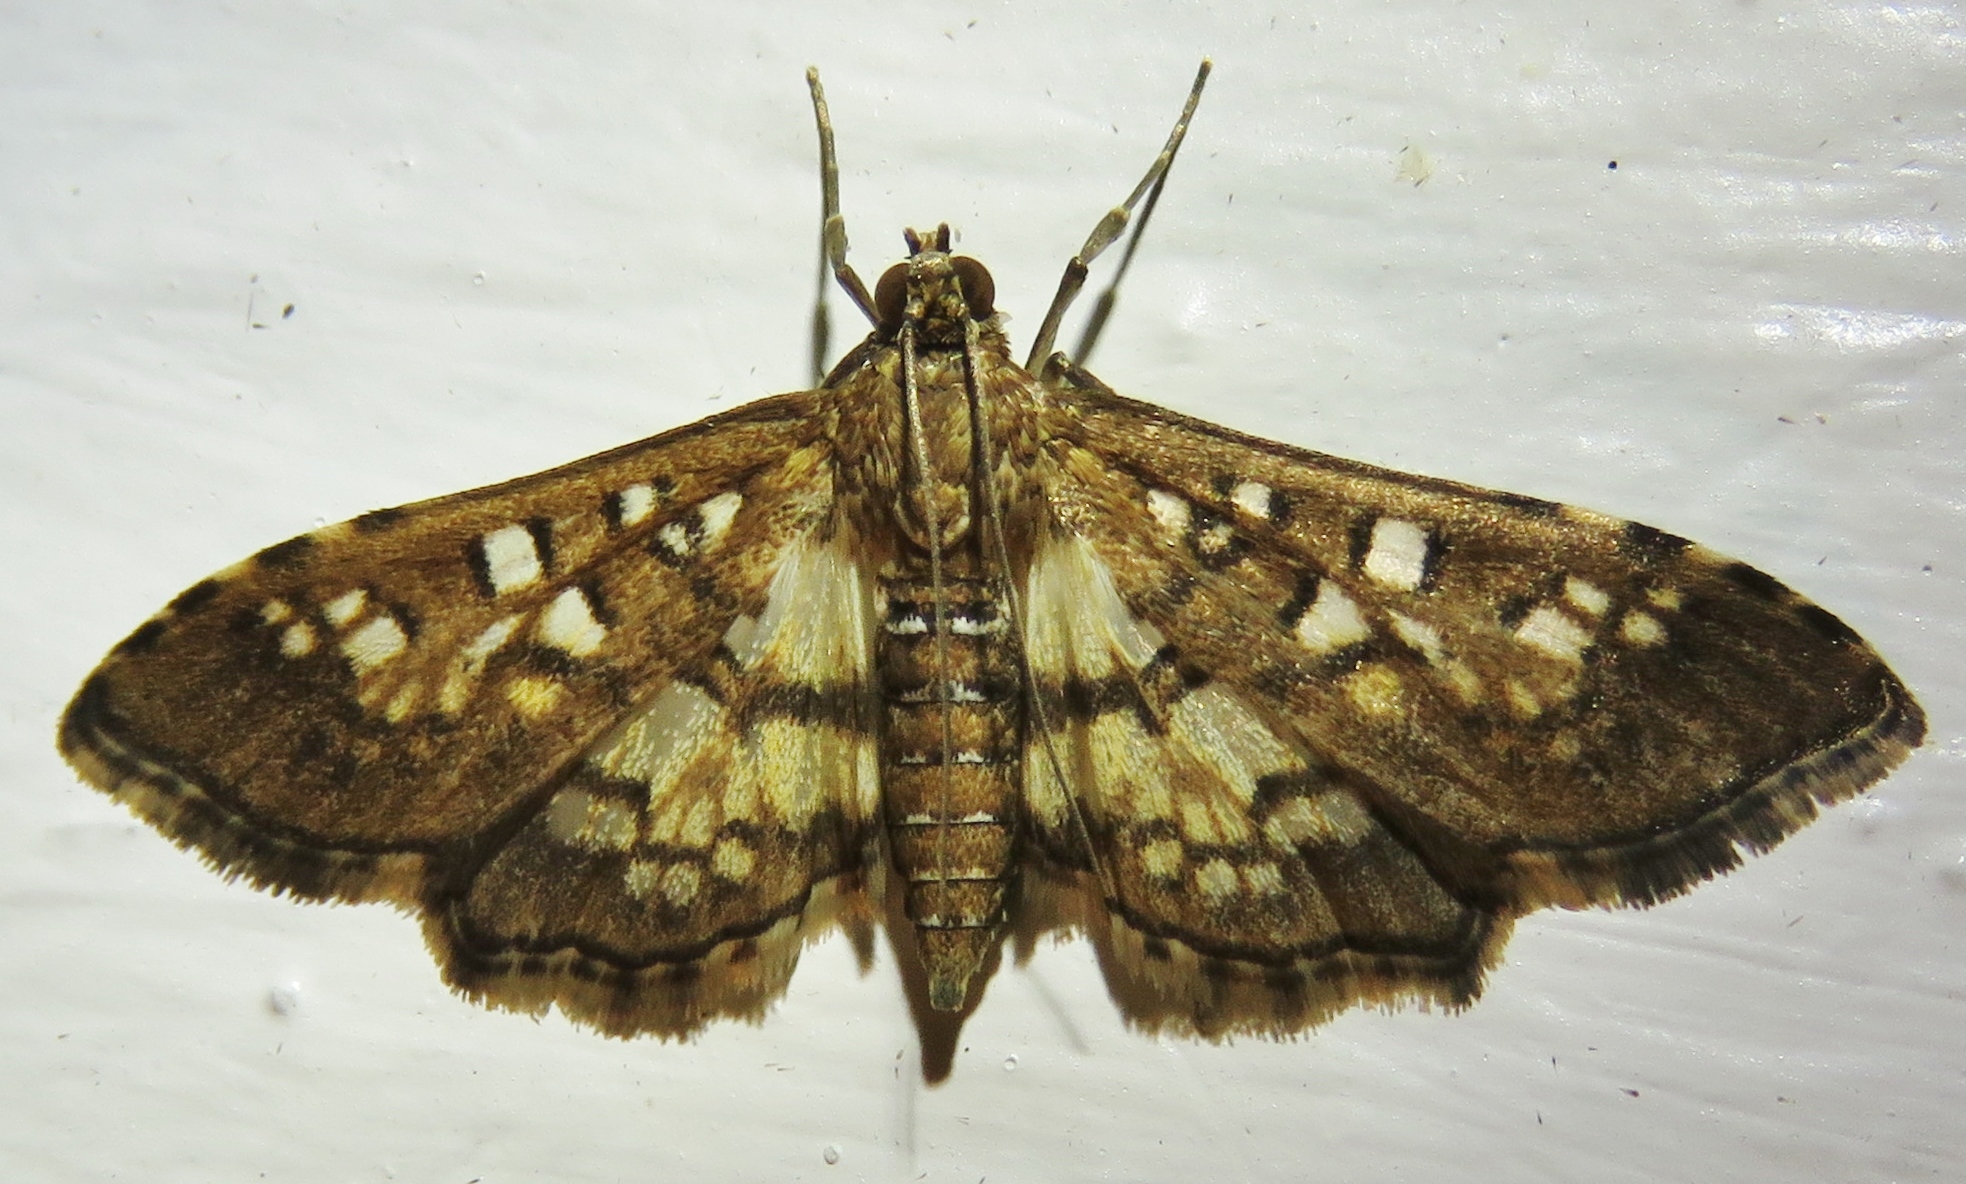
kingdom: Animalia
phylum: Arthropoda
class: Insecta
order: Lepidoptera
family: Crambidae
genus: Samea
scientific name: Samea ecclesialis
